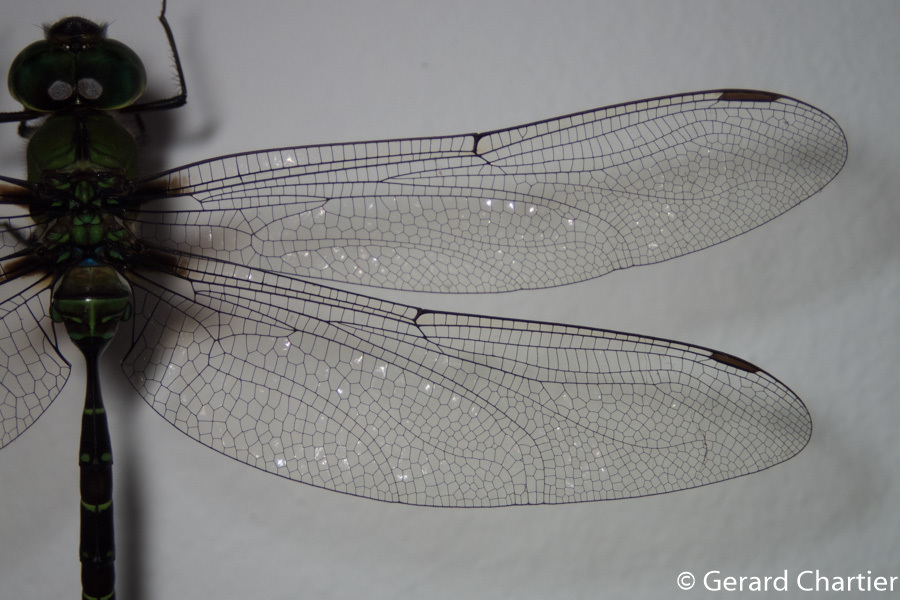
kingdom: Animalia
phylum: Arthropoda
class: Insecta
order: Odonata
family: Aeshnidae
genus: Gynacantha
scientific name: Gynacantha basiguttata
